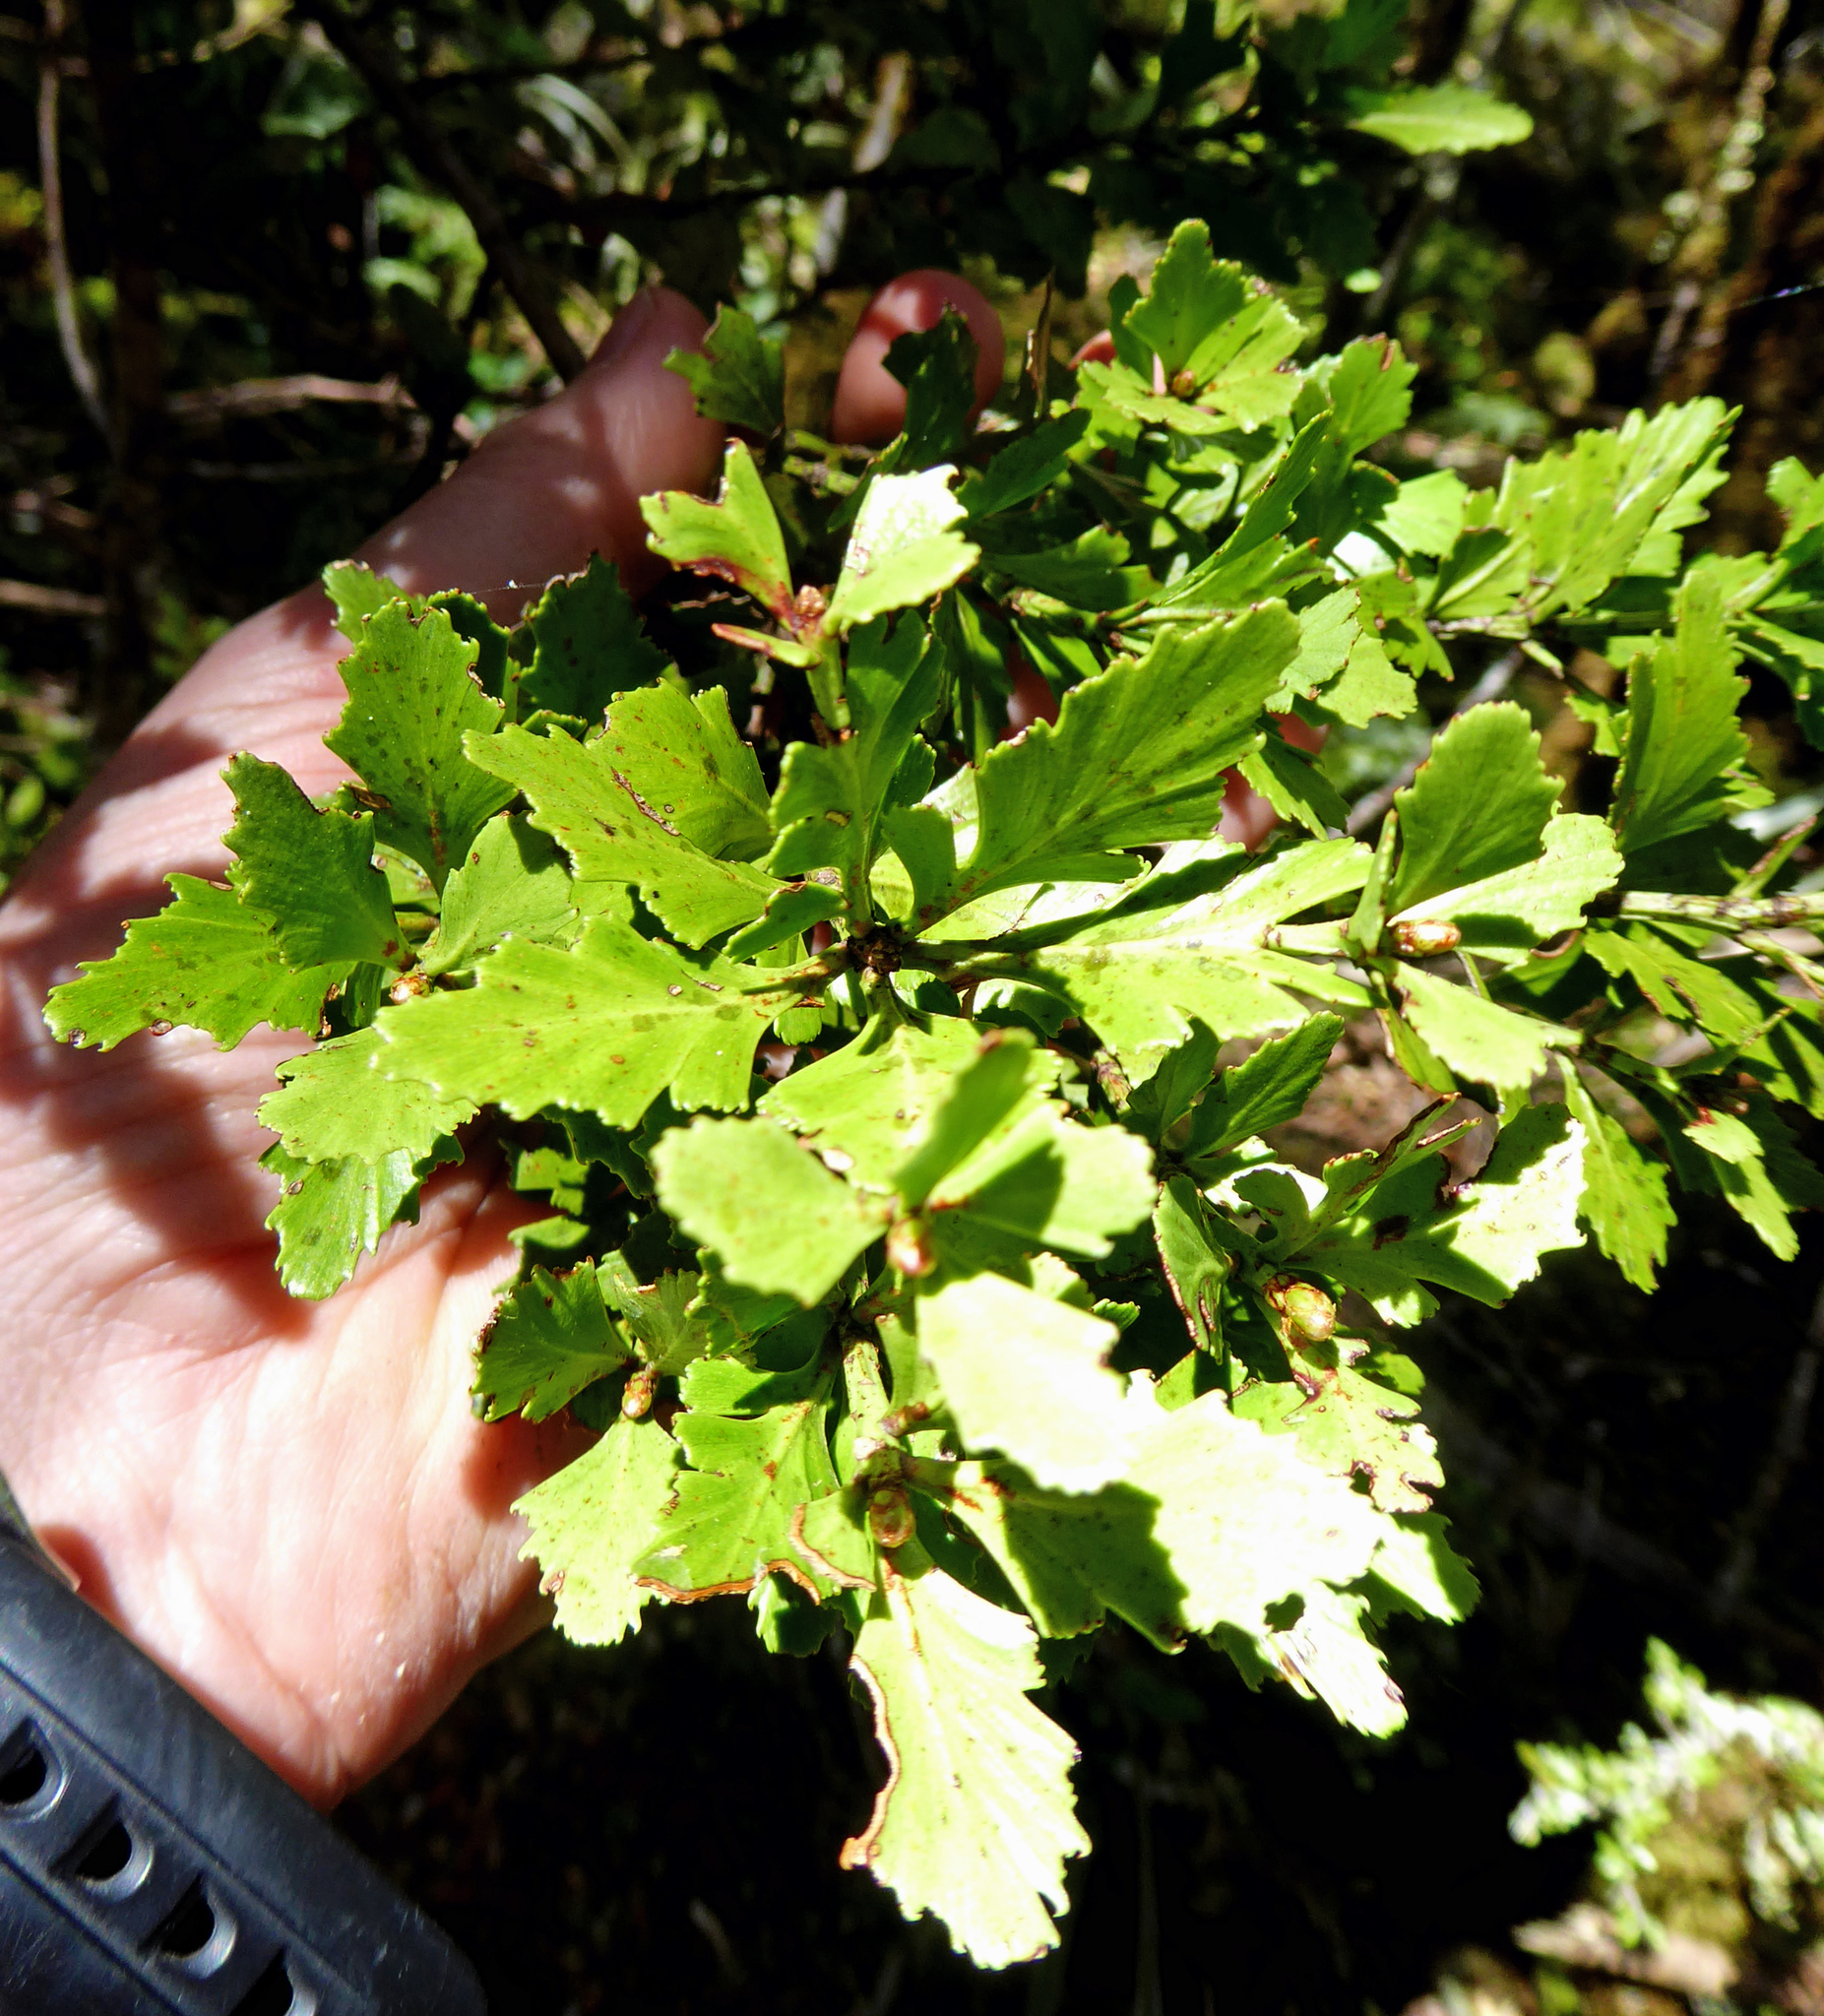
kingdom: Plantae
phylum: Tracheophyta
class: Pinopsida
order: Pinales
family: Phyllocladaceae
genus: Phyllocladus
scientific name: Phyllocladus trichomanoides
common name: Celery pine
